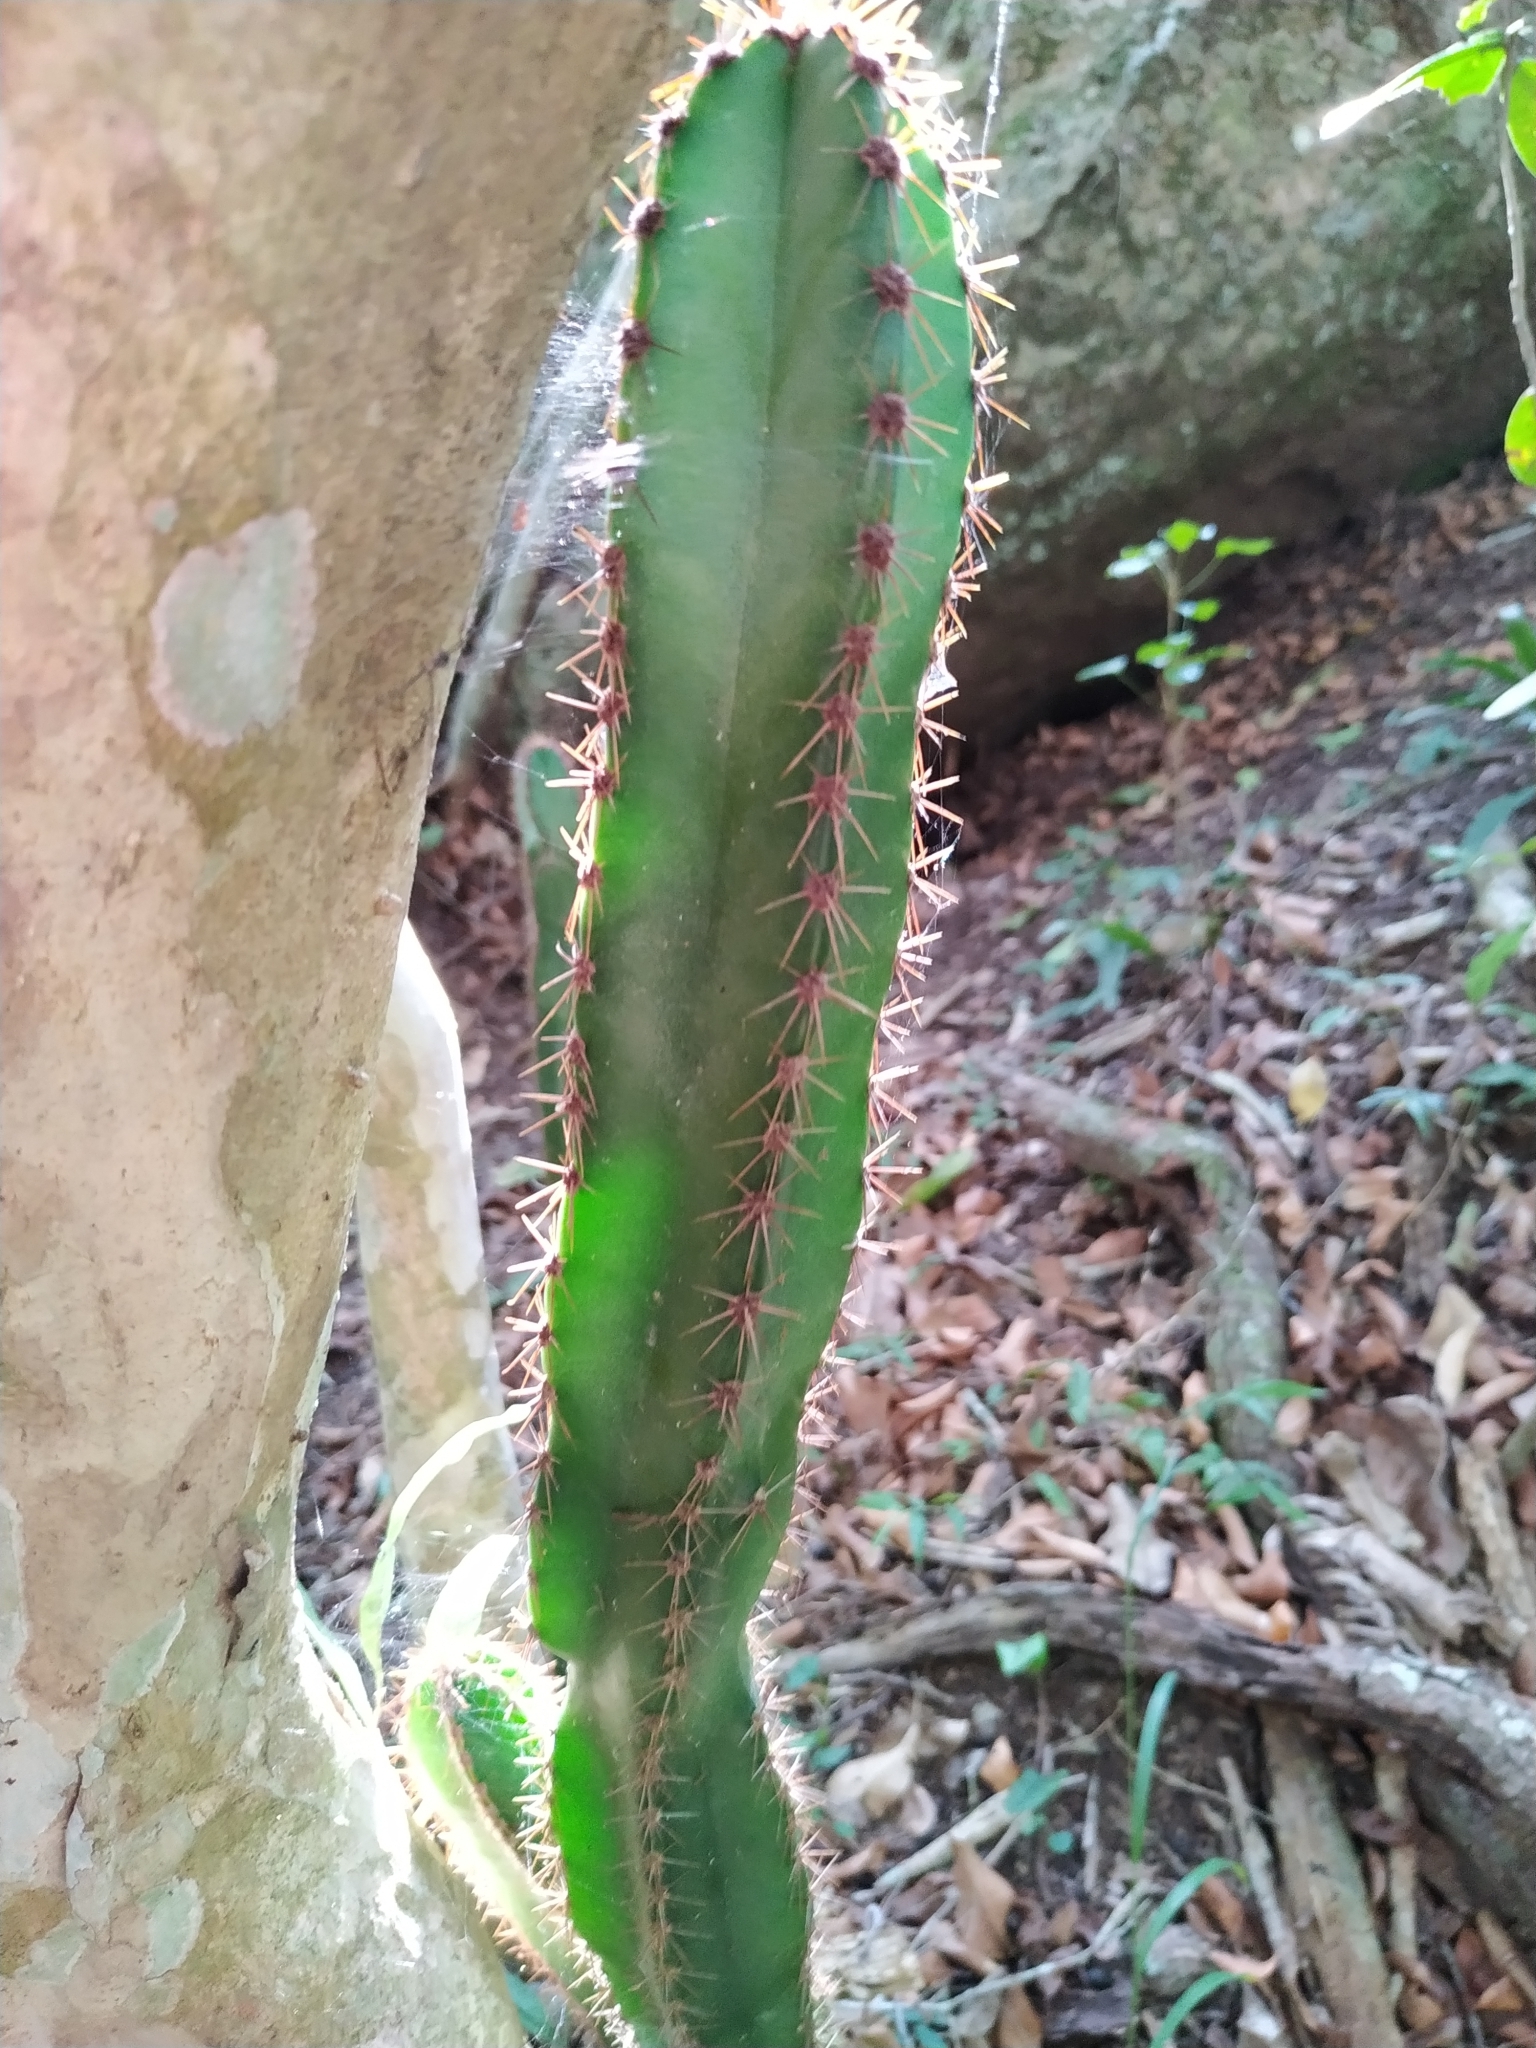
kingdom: Plantae
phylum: Tracheophyta
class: Magnoliopsida
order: Caryophyllales
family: Cactaceae
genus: Cereus
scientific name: Cereus hildmannianus
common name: Hedge cactus
